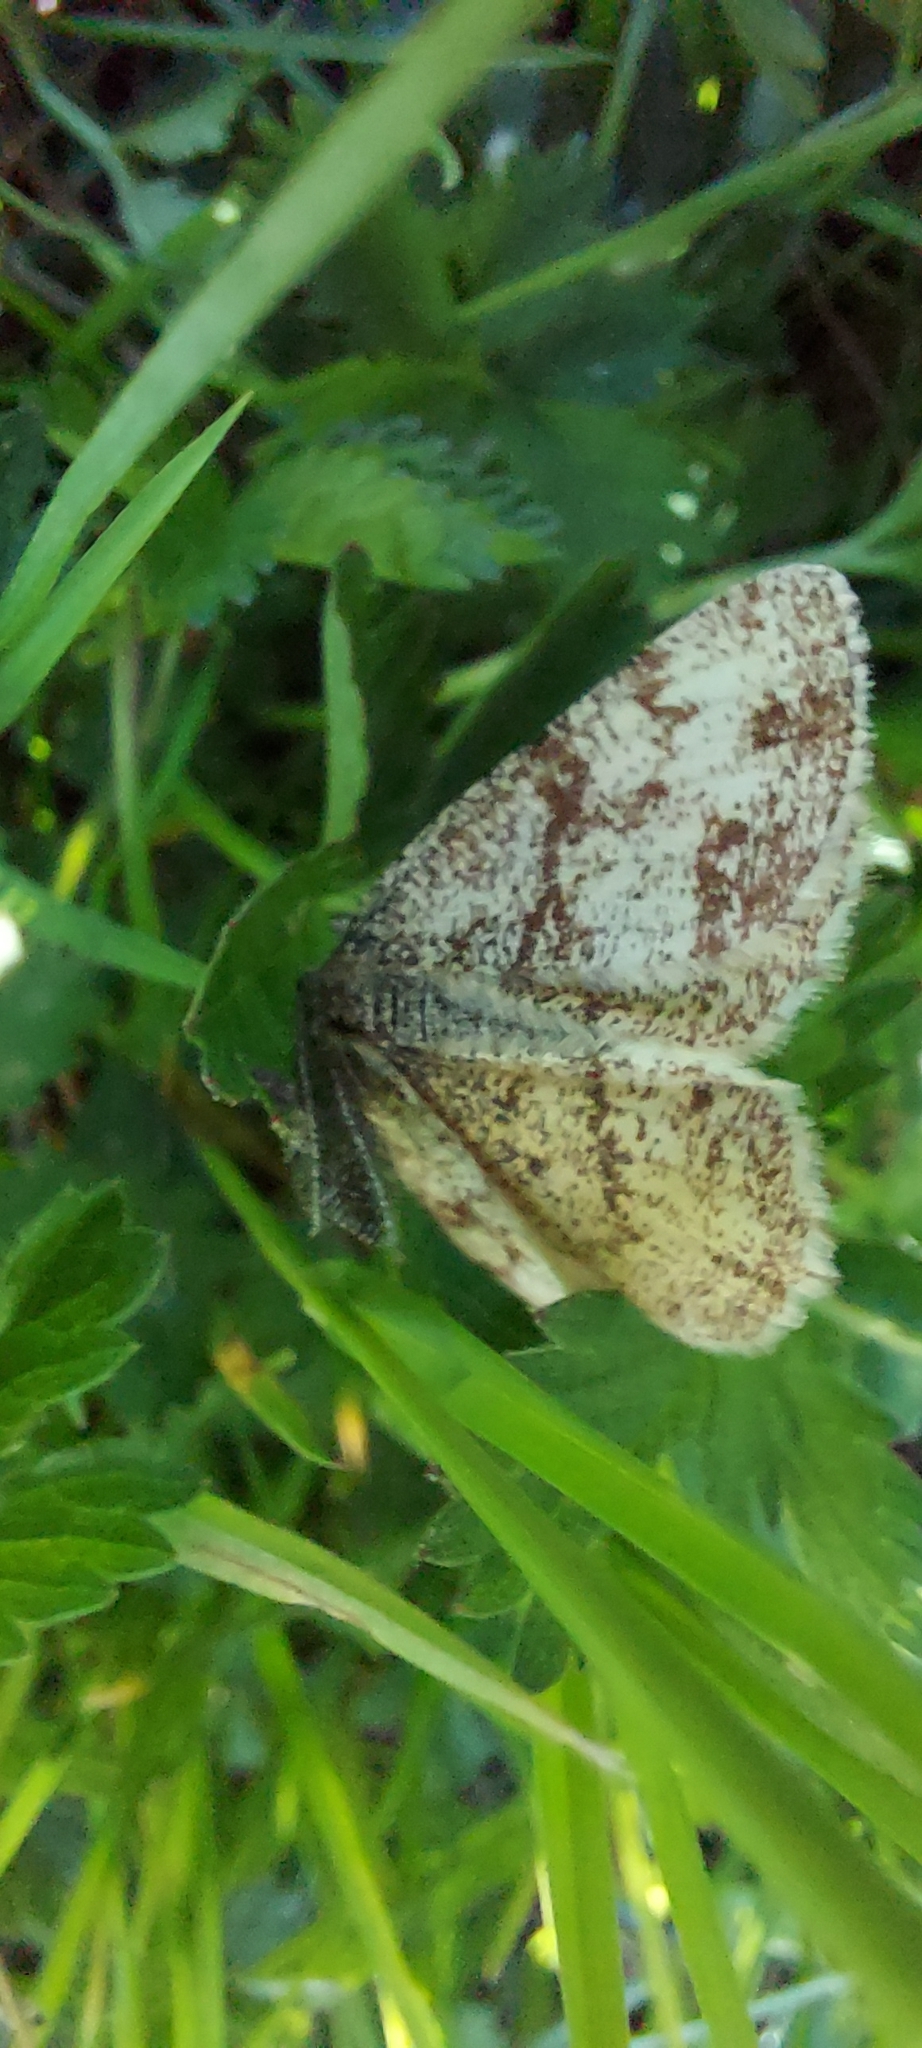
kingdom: Animalia
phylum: Arthropoda
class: Insecta
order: Lepidoptera
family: Geometridae
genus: Ematurga
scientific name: Ematurga atomaria
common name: Common heath
